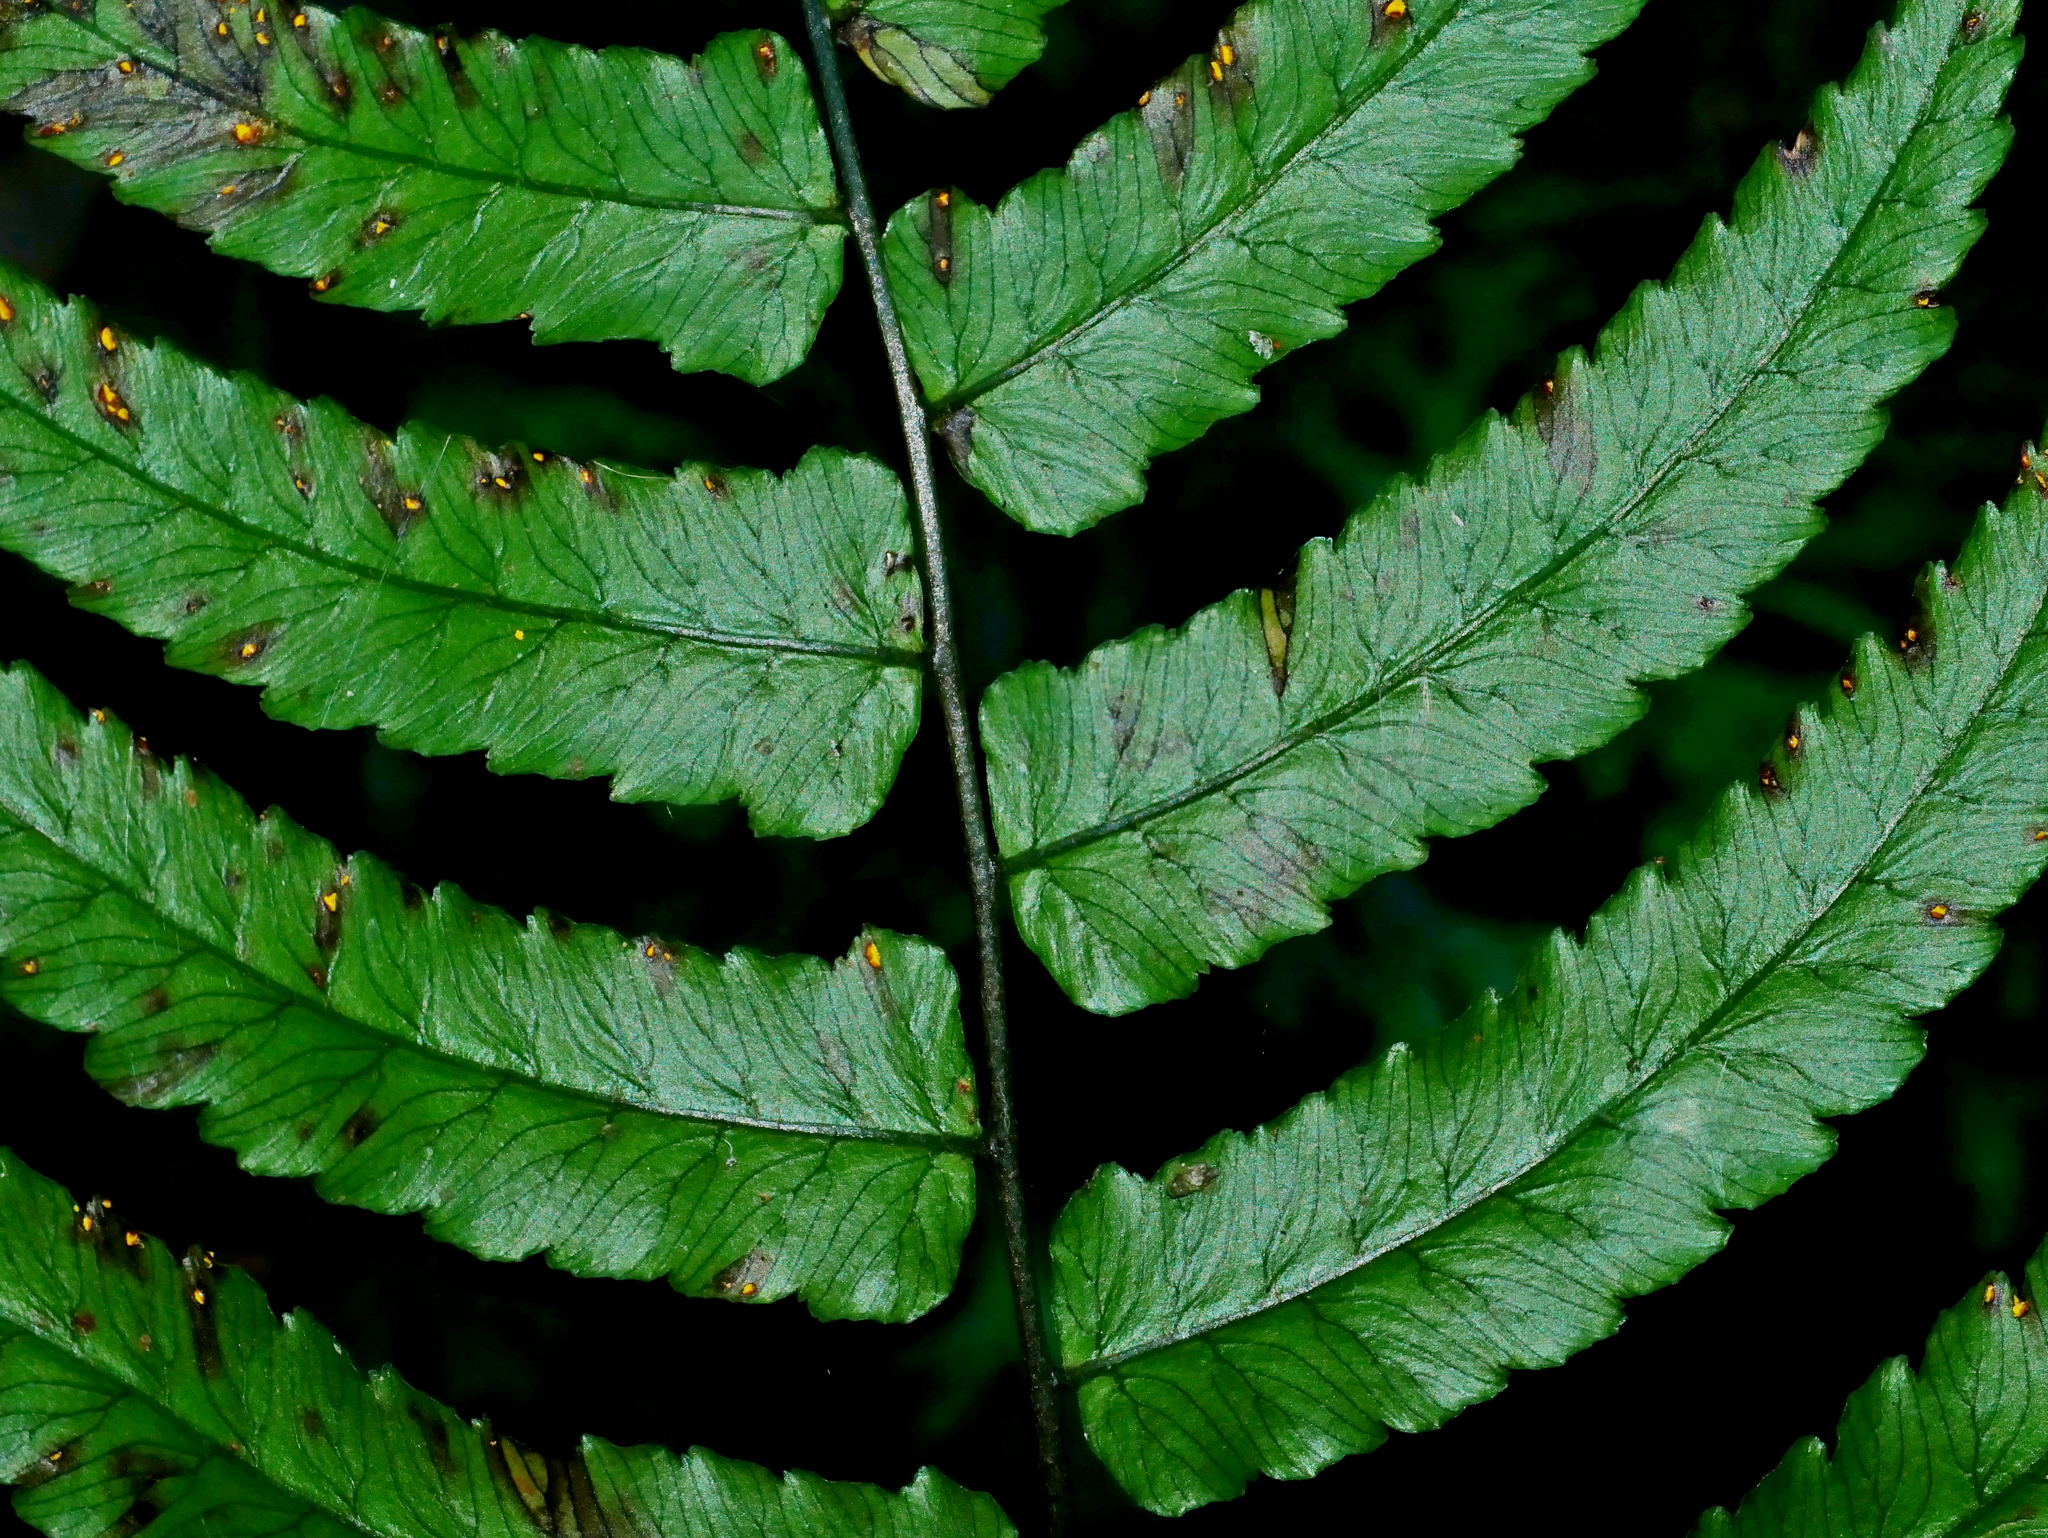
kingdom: Plantae
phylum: Tracheophyta
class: Polypodiopsida
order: Polypodiales
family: Athyriaceae
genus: Diplazium
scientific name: Diplazium fauriei
